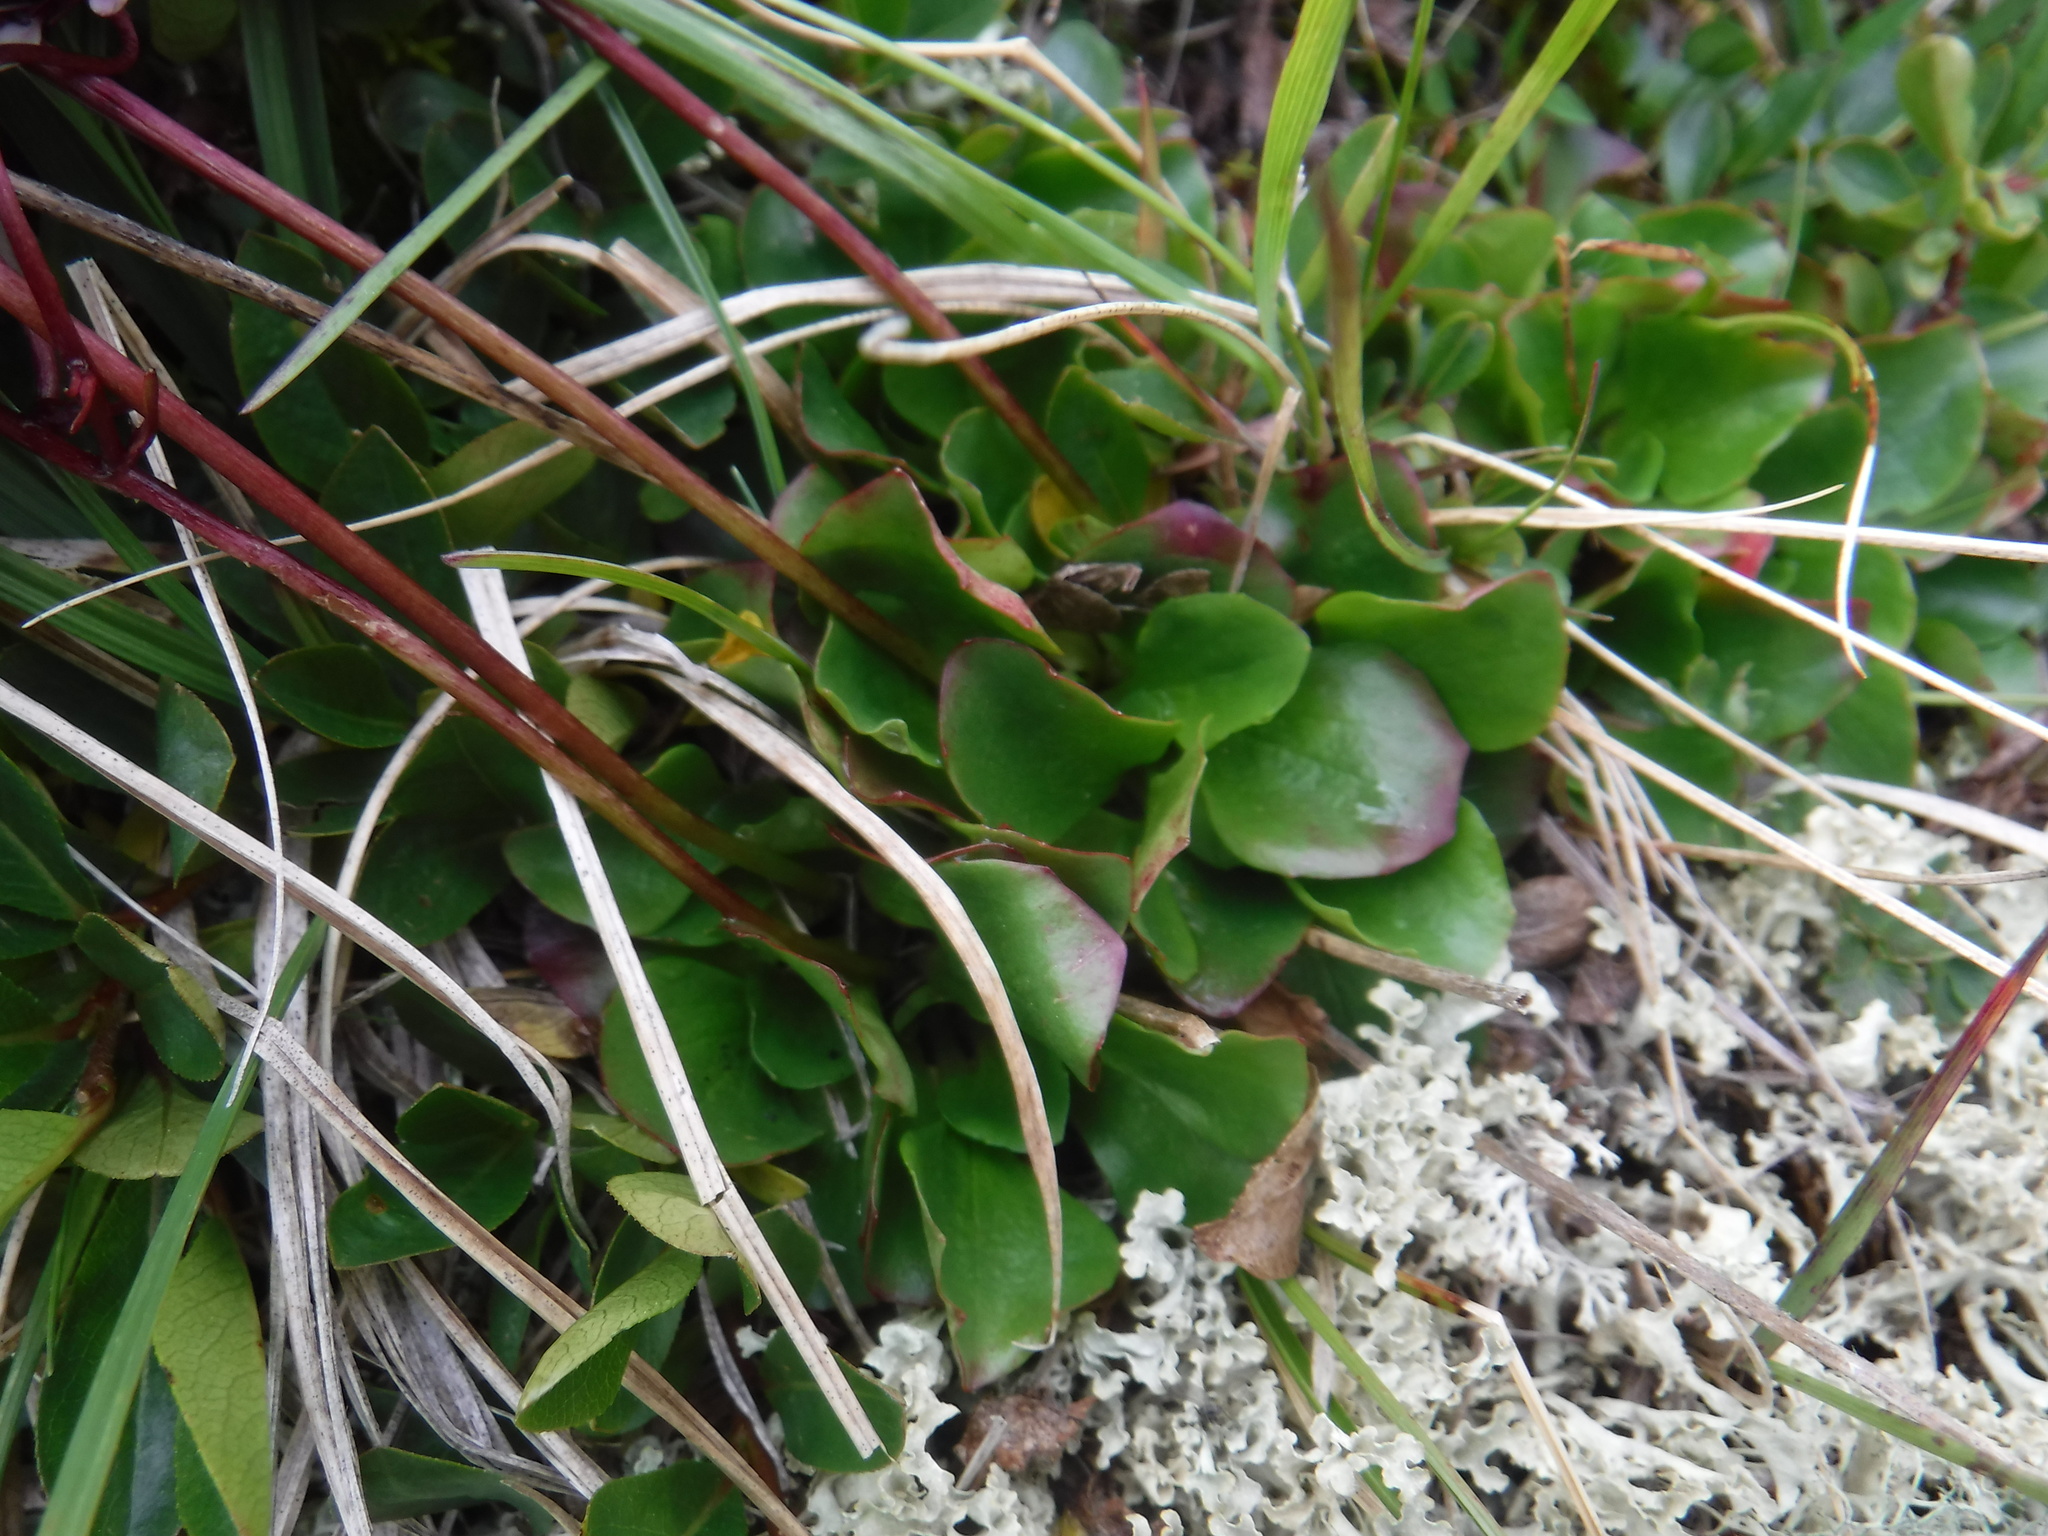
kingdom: Plantae
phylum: Tracheophyta
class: Magnoliopsida
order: Saxifragales
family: Saxifragaceae
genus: Micranthes
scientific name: Micranthes melaleuca
